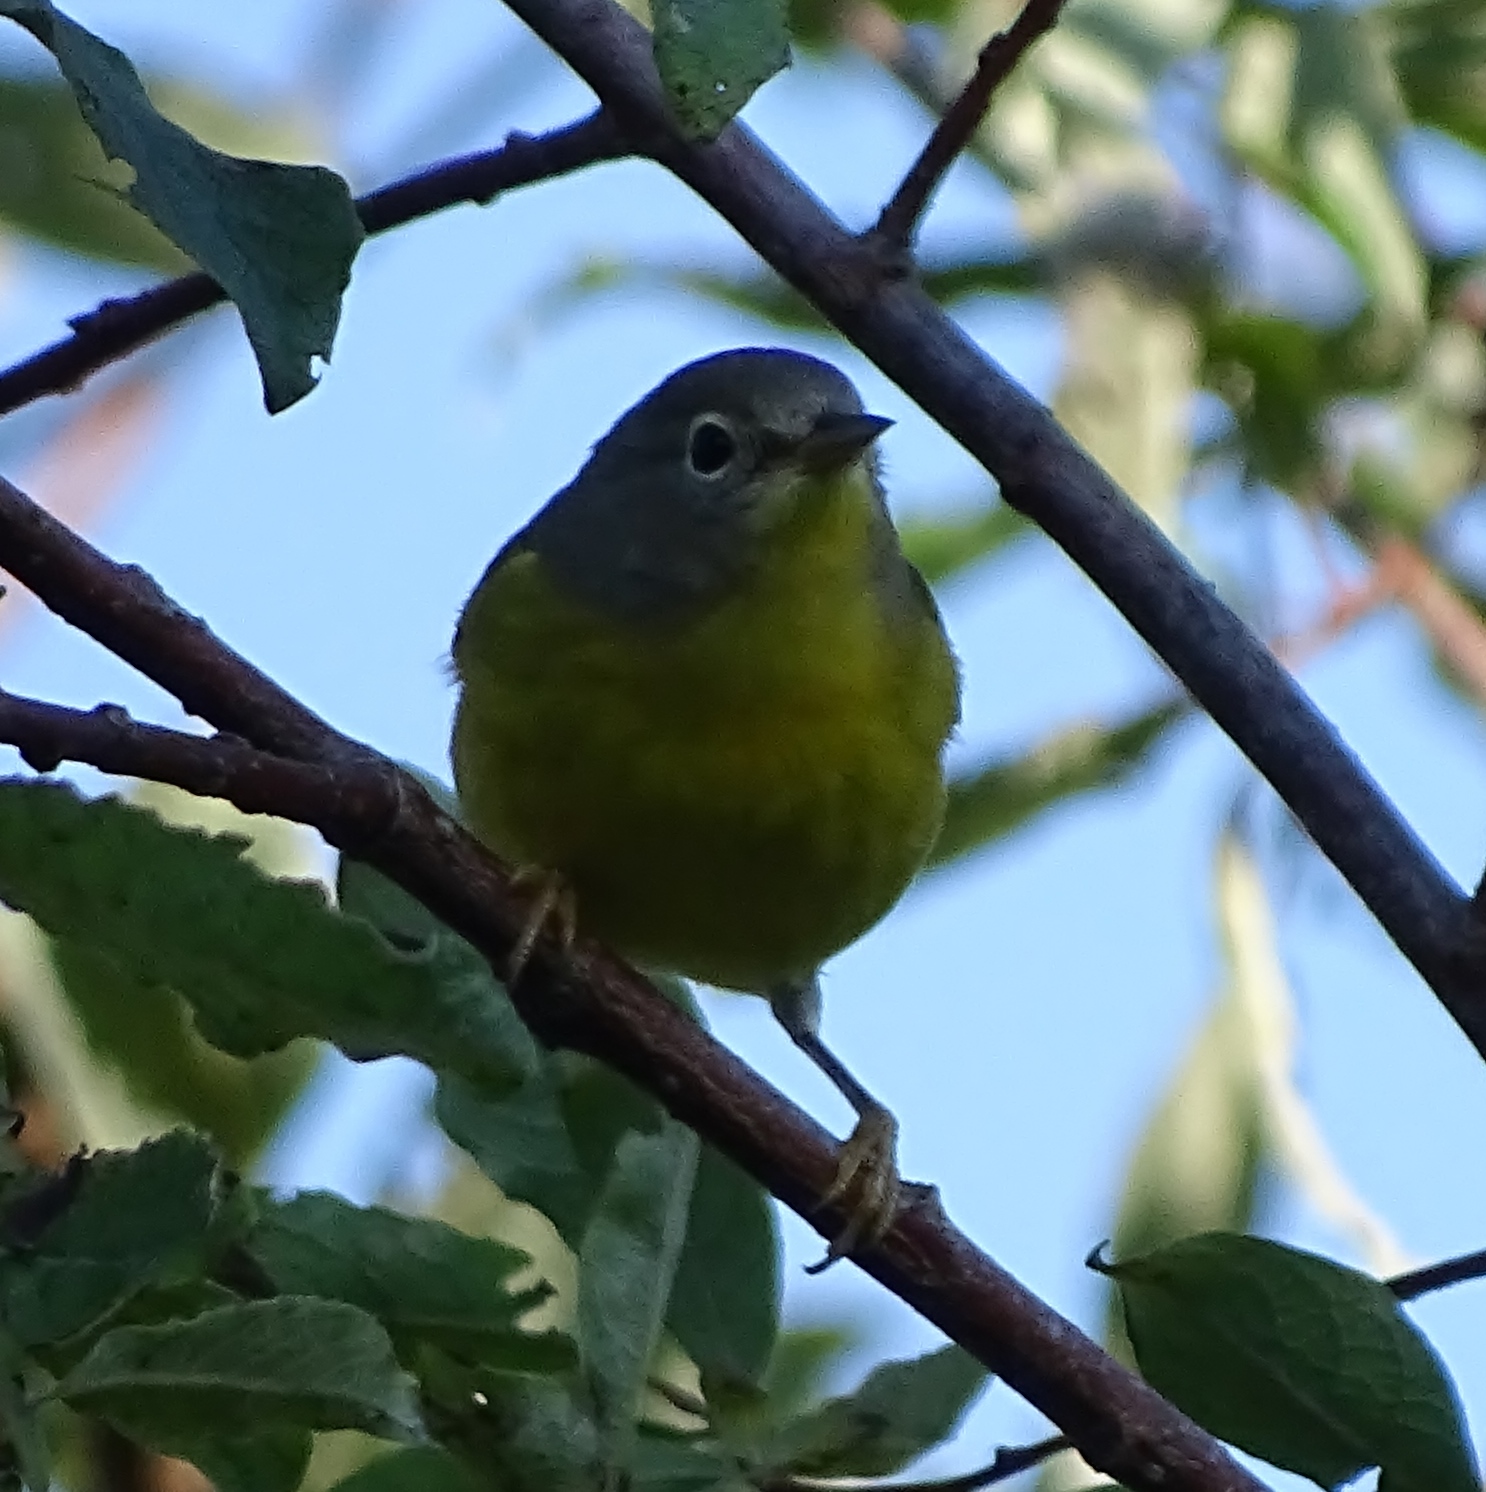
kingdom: Animalia
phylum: Chordata
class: Aves
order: Passeriformes
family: Parulidae
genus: Leiothlypis
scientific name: Leiothlypis ruficapilla
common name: Nashville warbler
